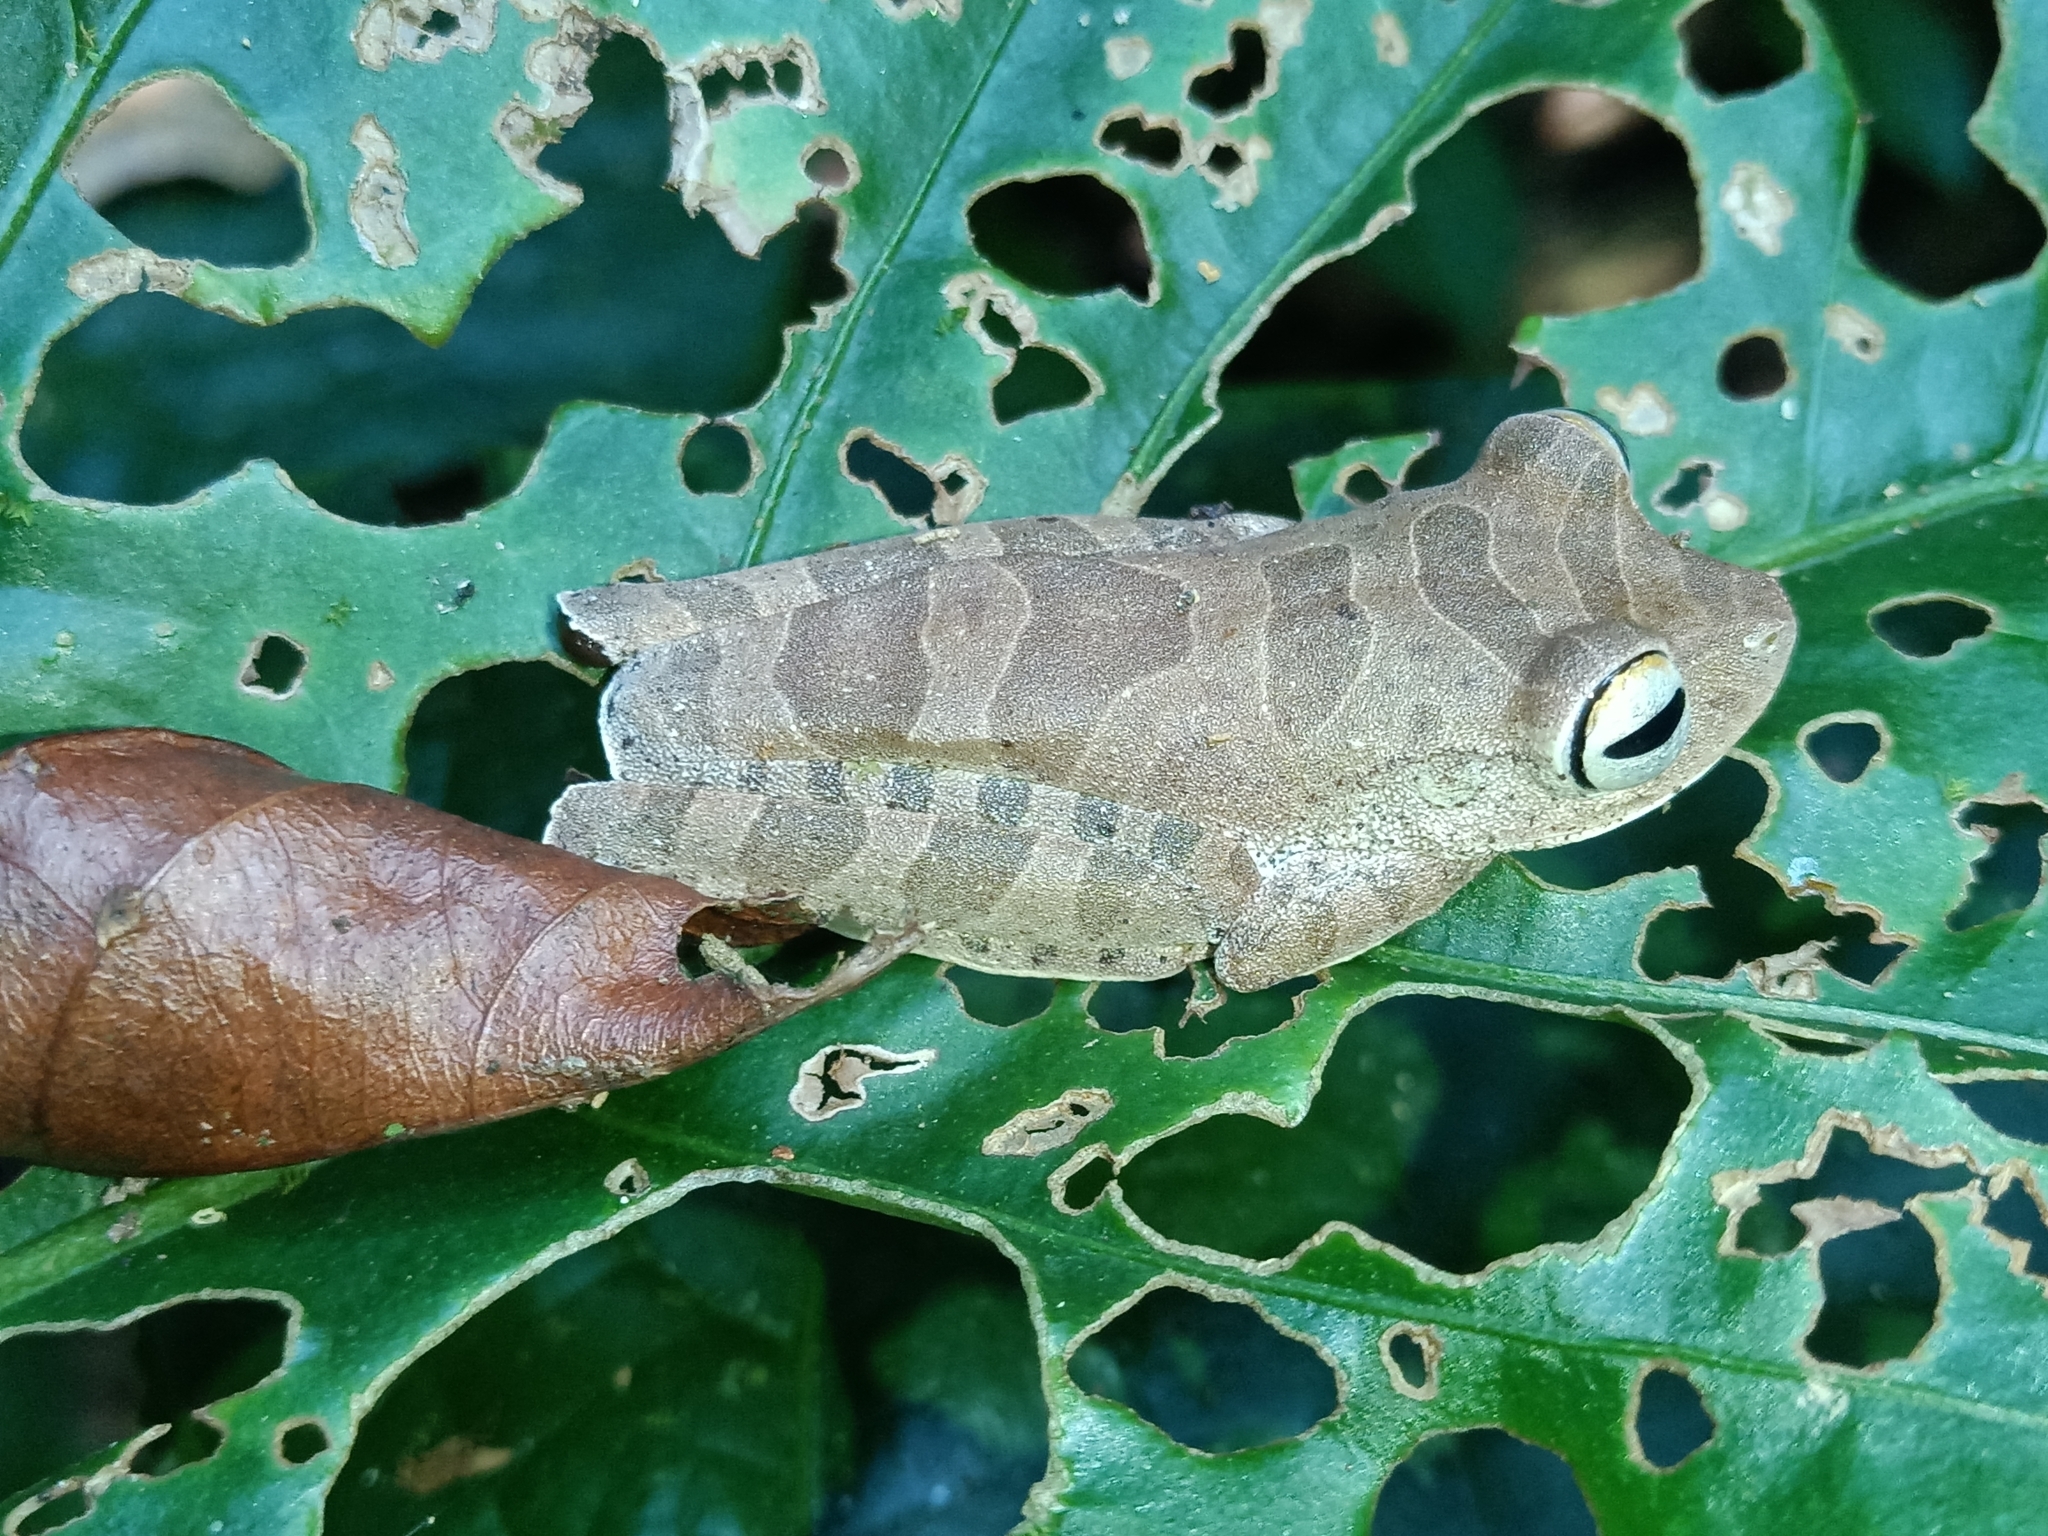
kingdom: Animalia
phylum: Chordata
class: Amphibia
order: Anura
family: Hylidae
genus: Boana
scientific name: Boana dentei
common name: Amapa treefrog
